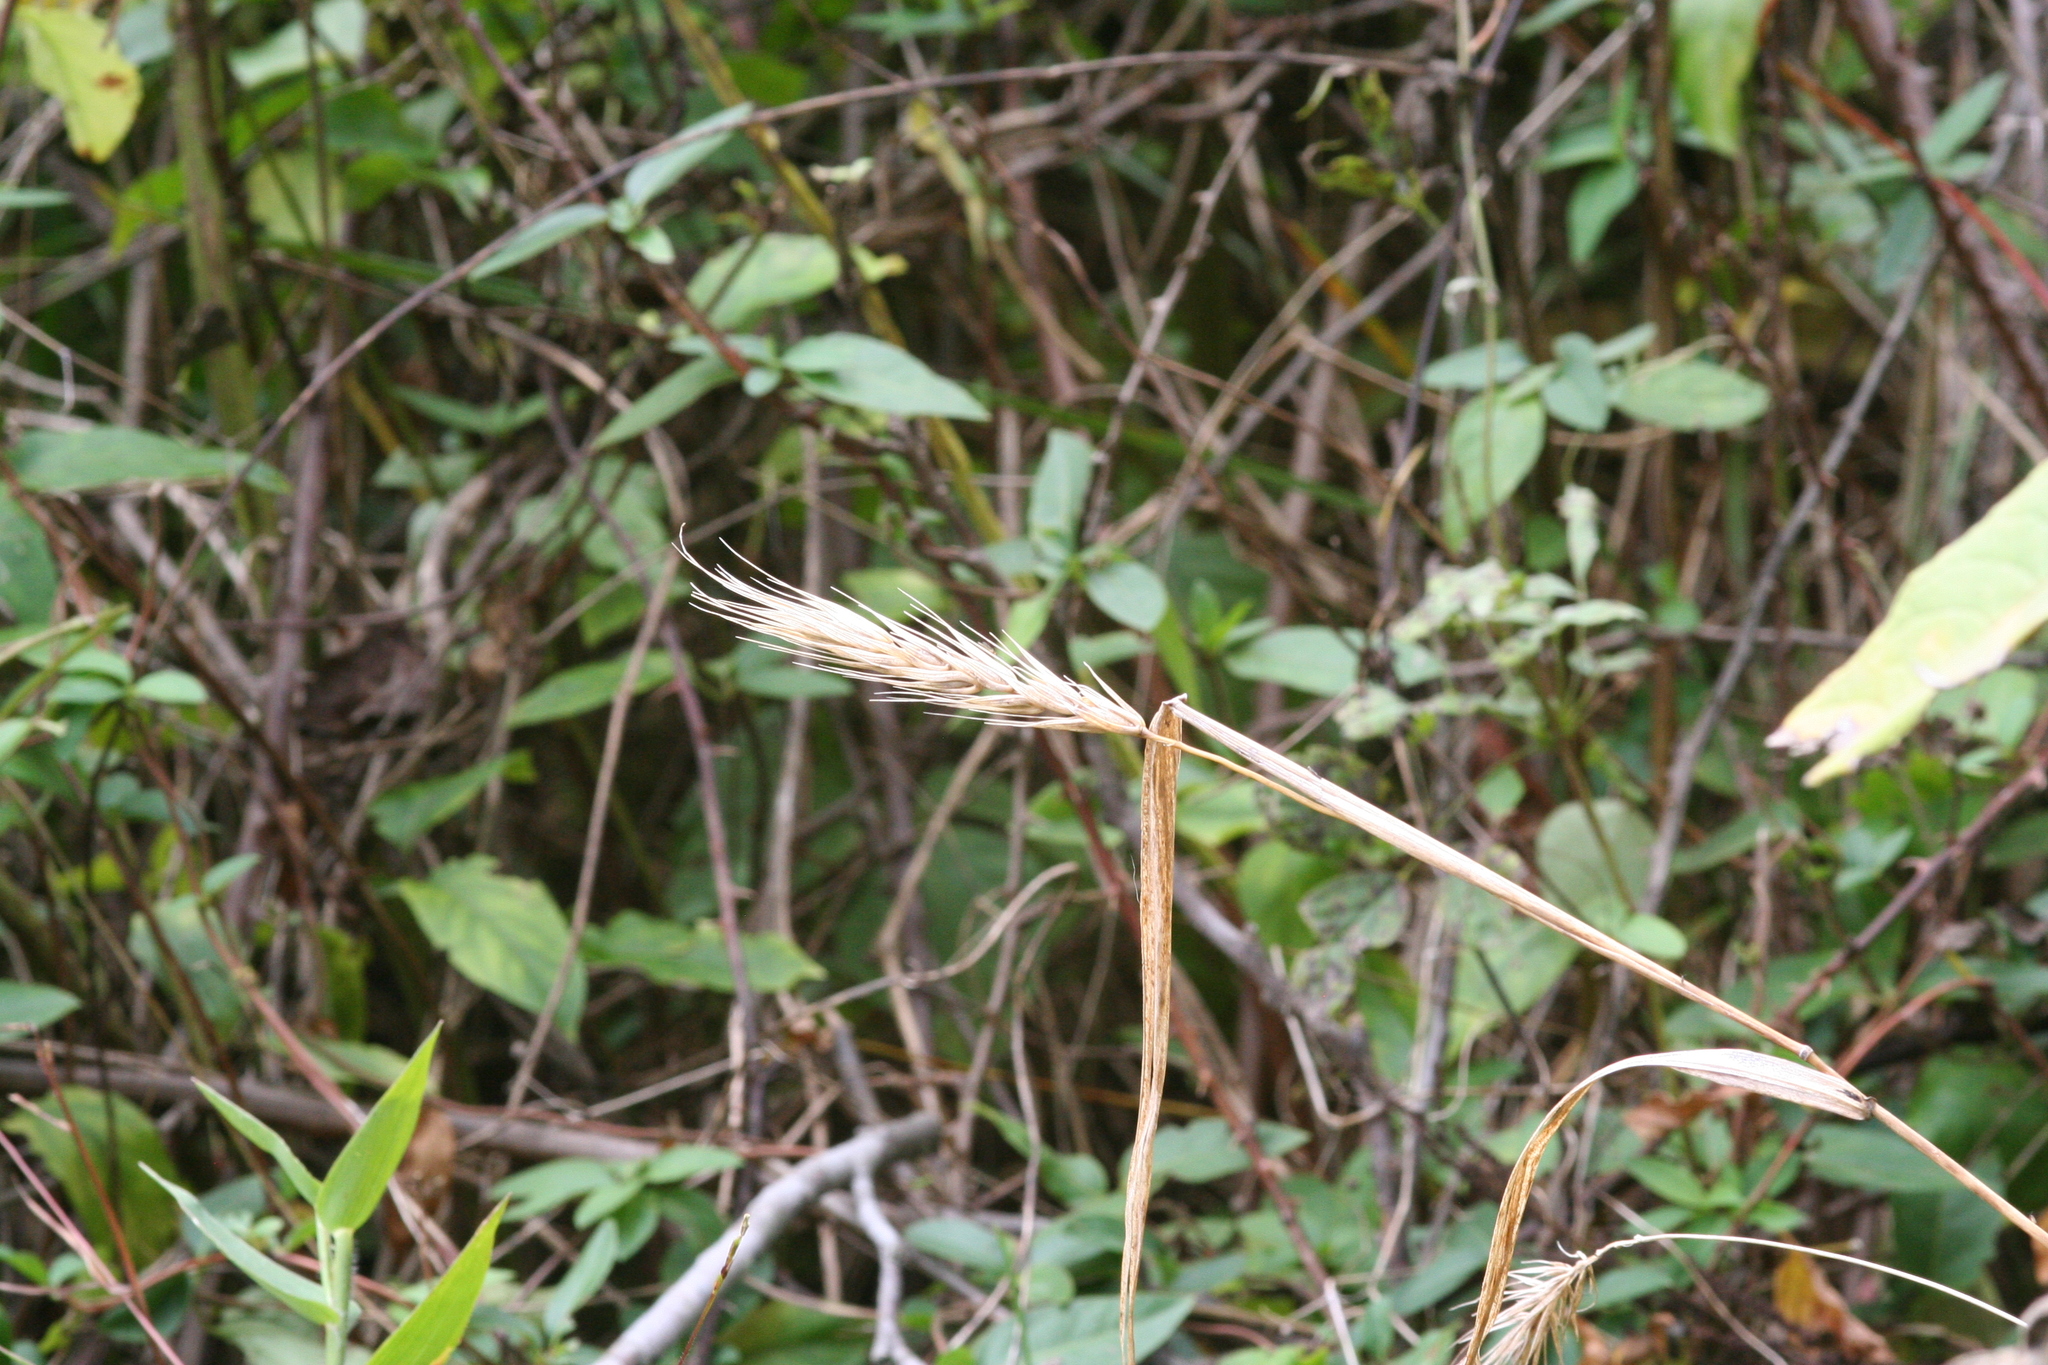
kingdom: Plantae
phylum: Tracheophyta
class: Liliopsida
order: Poales
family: Poaceae
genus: Elymus
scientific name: Elymus virginicus
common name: Common eastern wildrye
